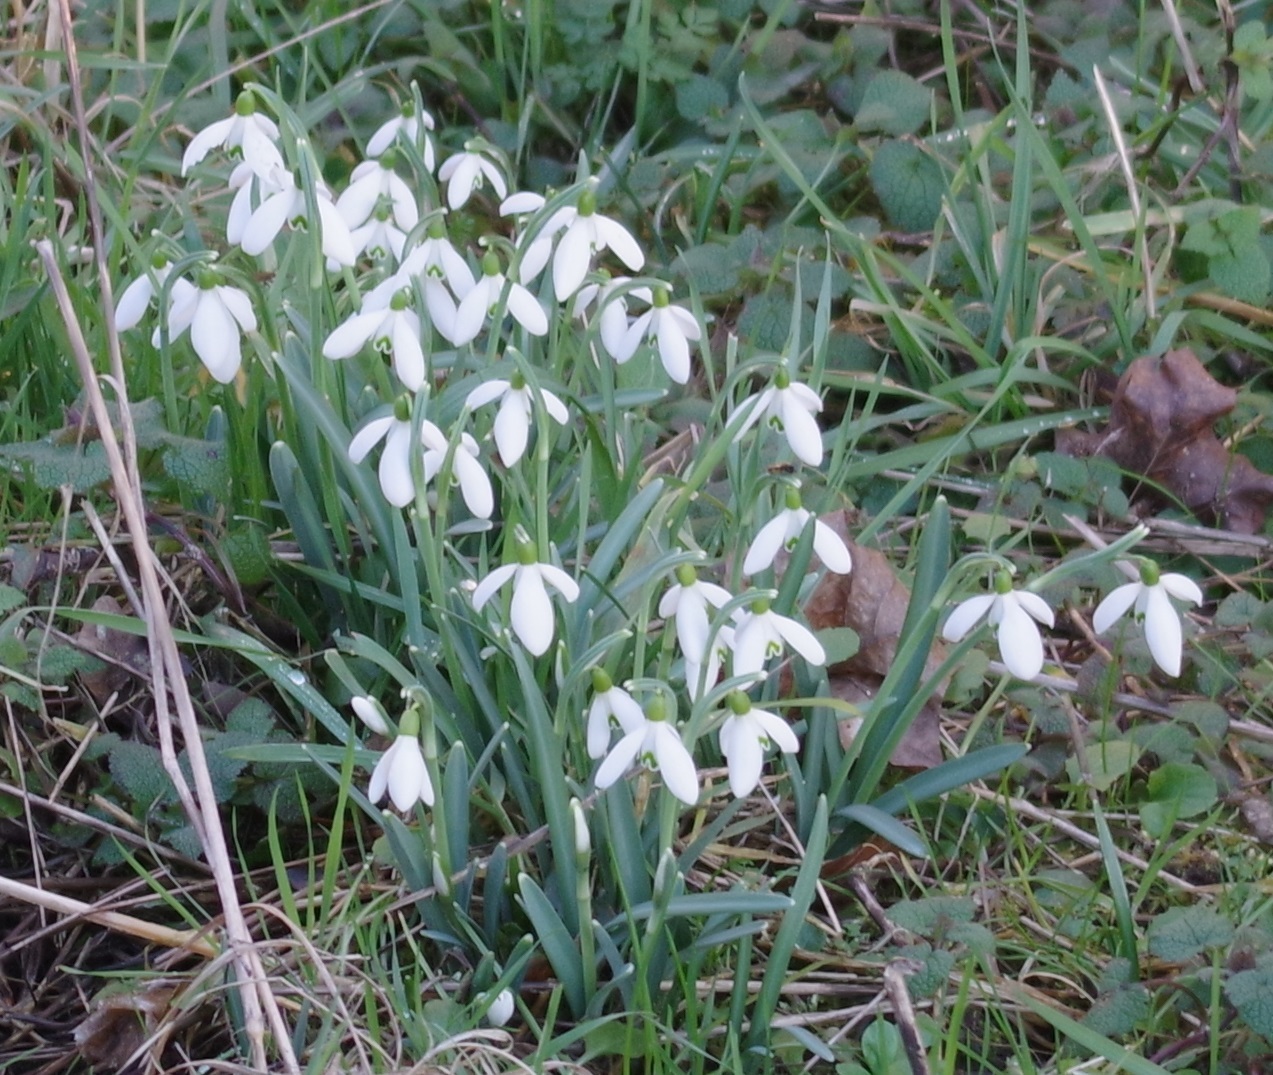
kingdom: Plantae
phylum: Tracheophyta
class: Liliopsida
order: Asparagales
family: Amaryllidaceae
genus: Galanthus
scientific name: Galanthus nivalis
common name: Snowdrop
